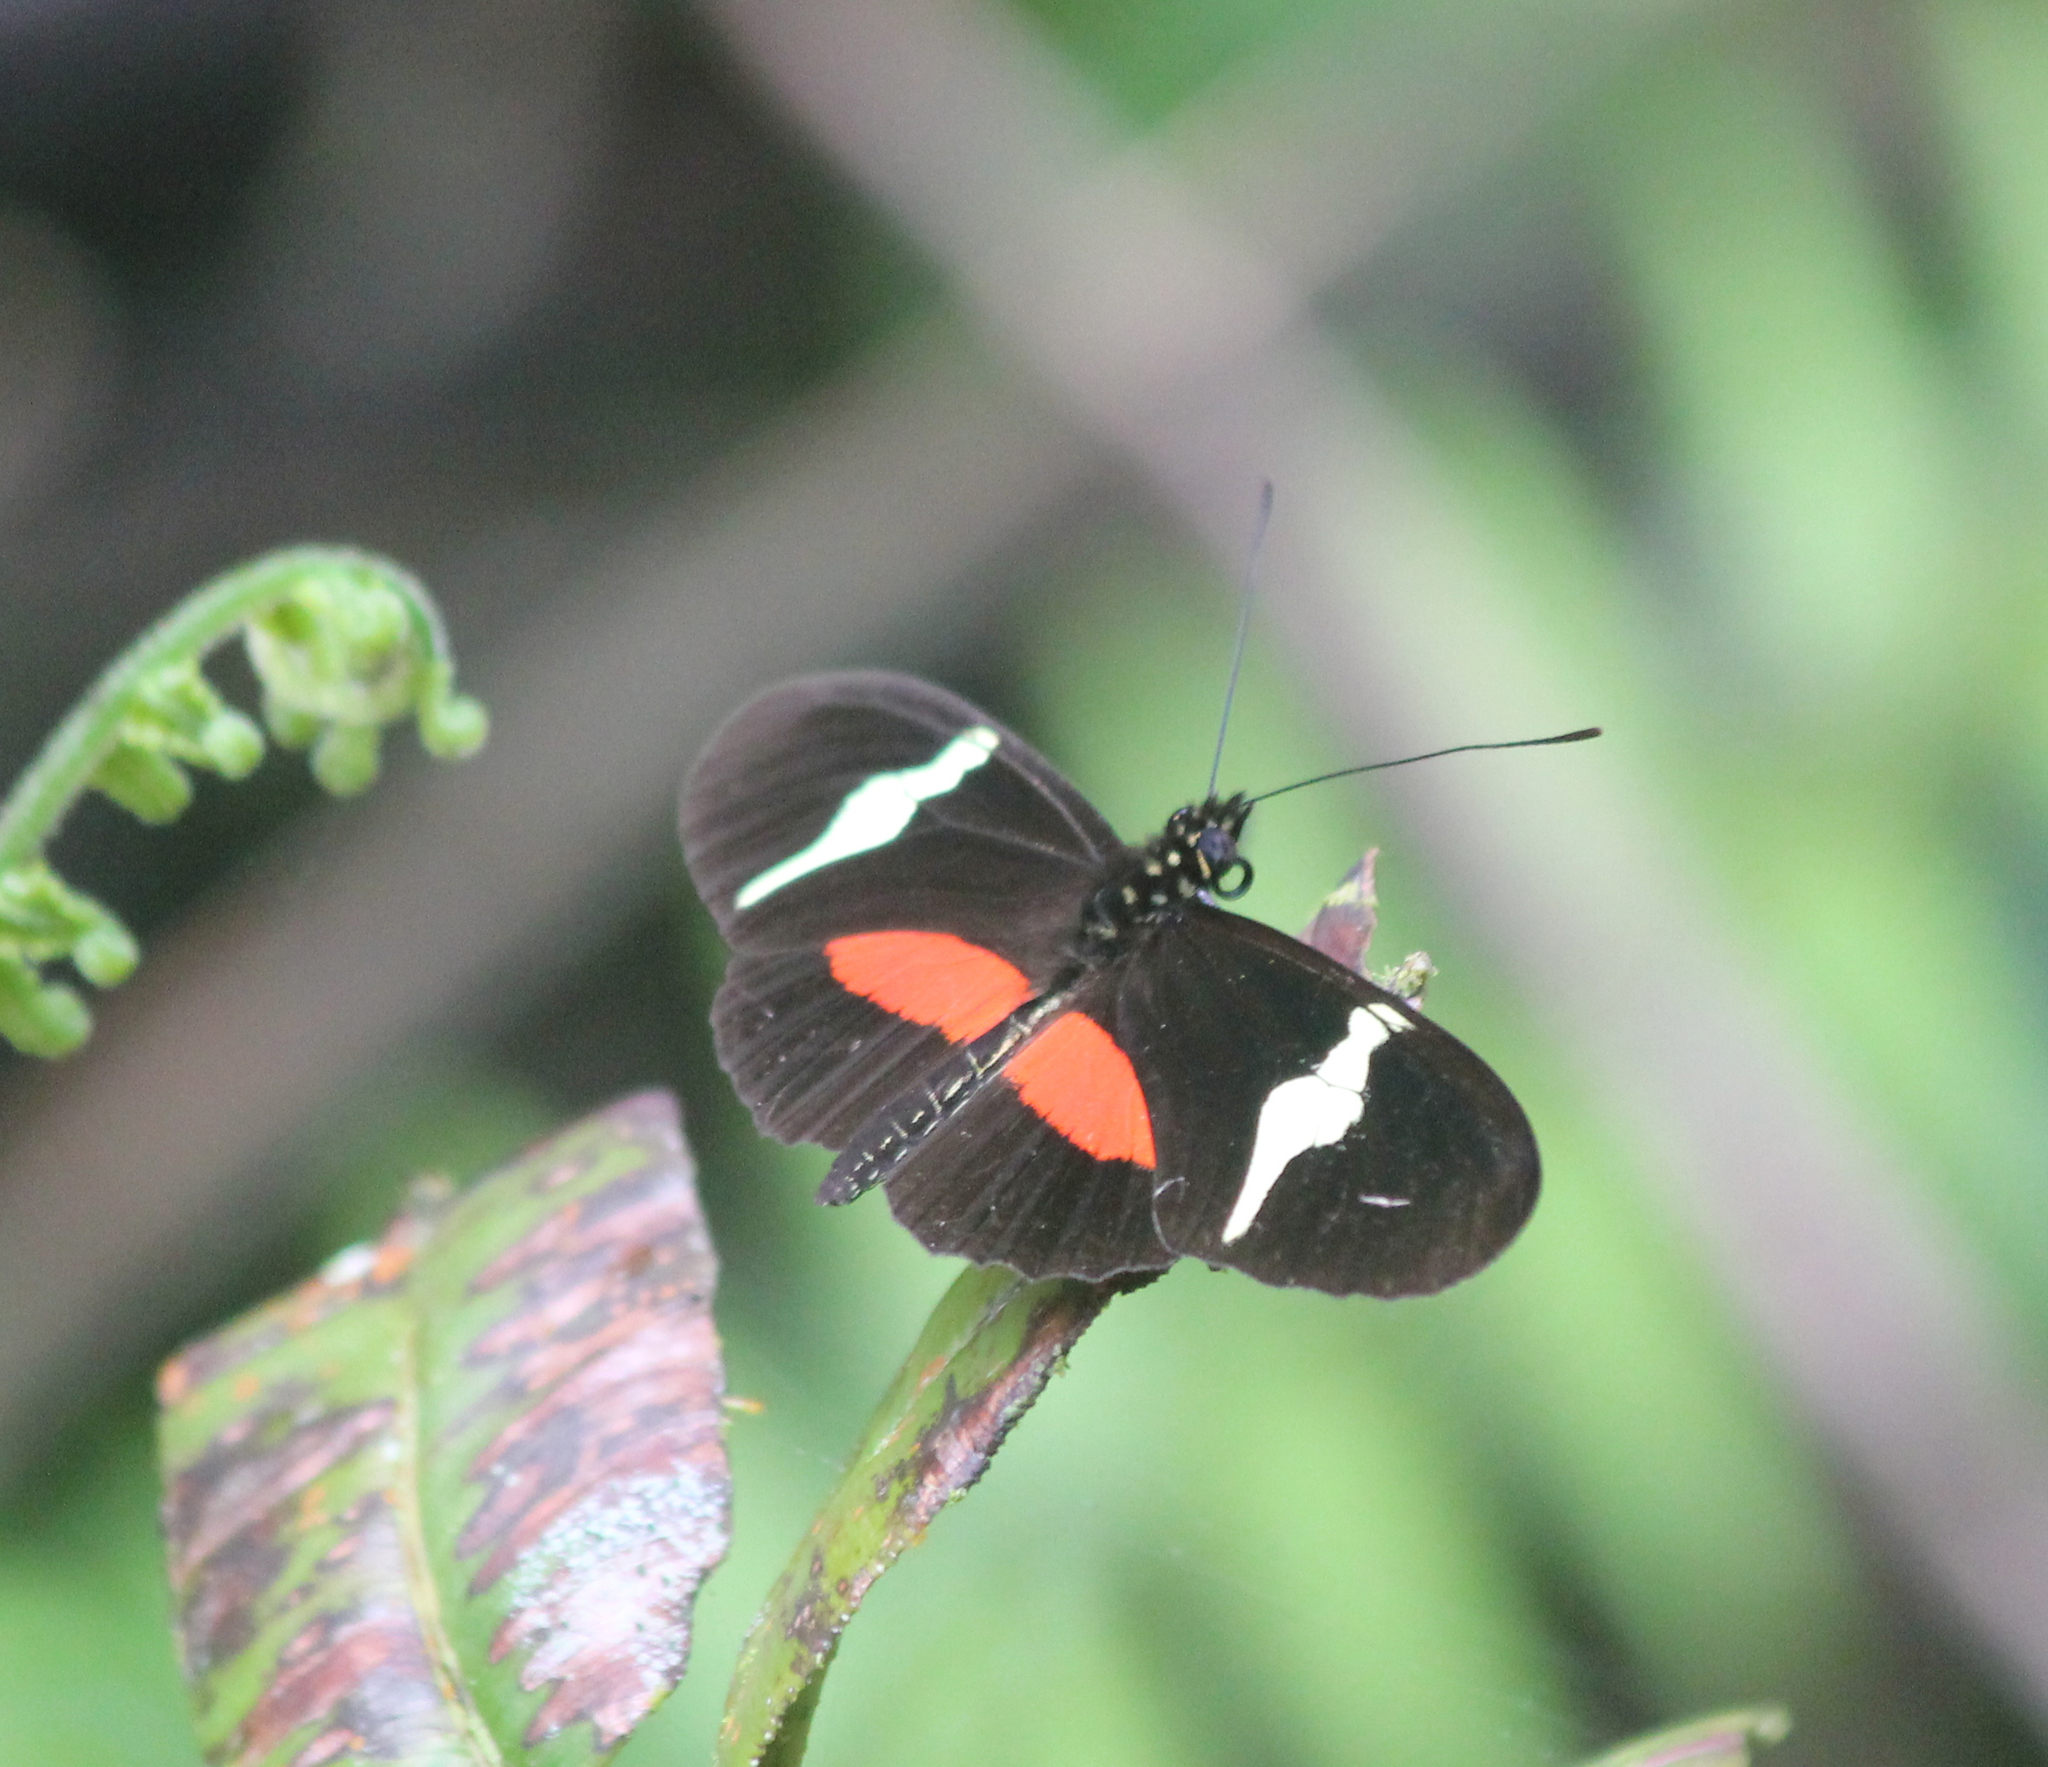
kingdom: Animalia
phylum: Arthropoda
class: Insecta
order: Lepidoptera
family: Nymphalidae
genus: Heliconius
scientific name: Heliconius clysonymus
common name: Clysonymus longwing
